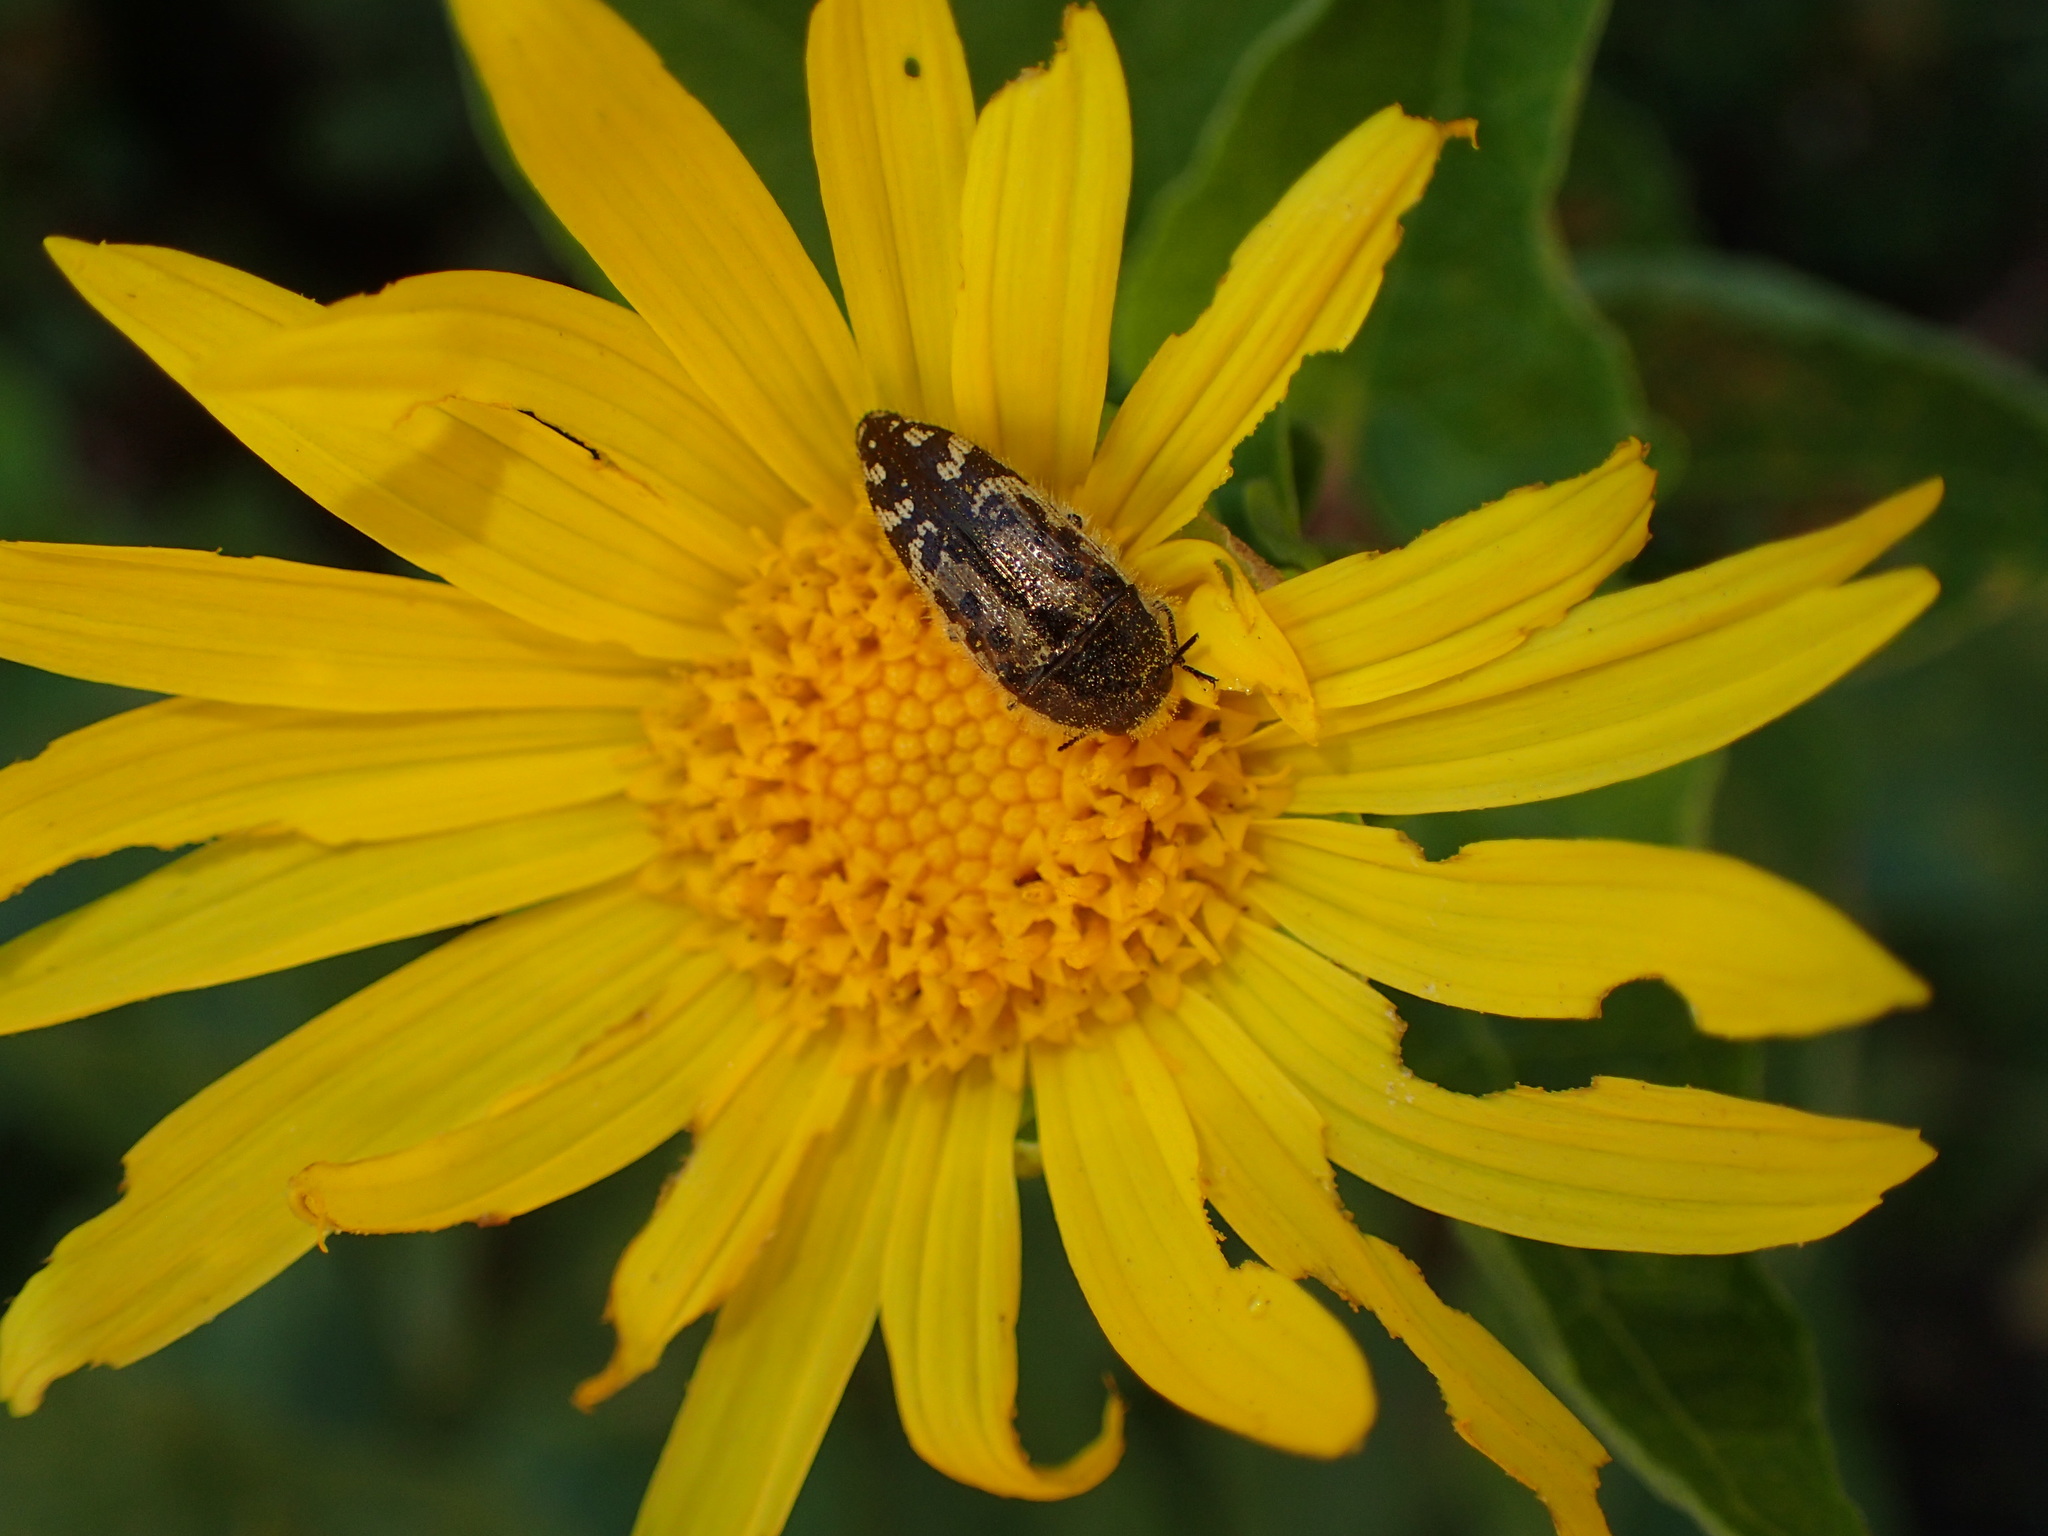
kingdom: Animalia
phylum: Arthropoda
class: Insecta
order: Coleoptera
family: Buprestidae
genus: Acmaeodera
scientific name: Acmaeodera hepburnii
